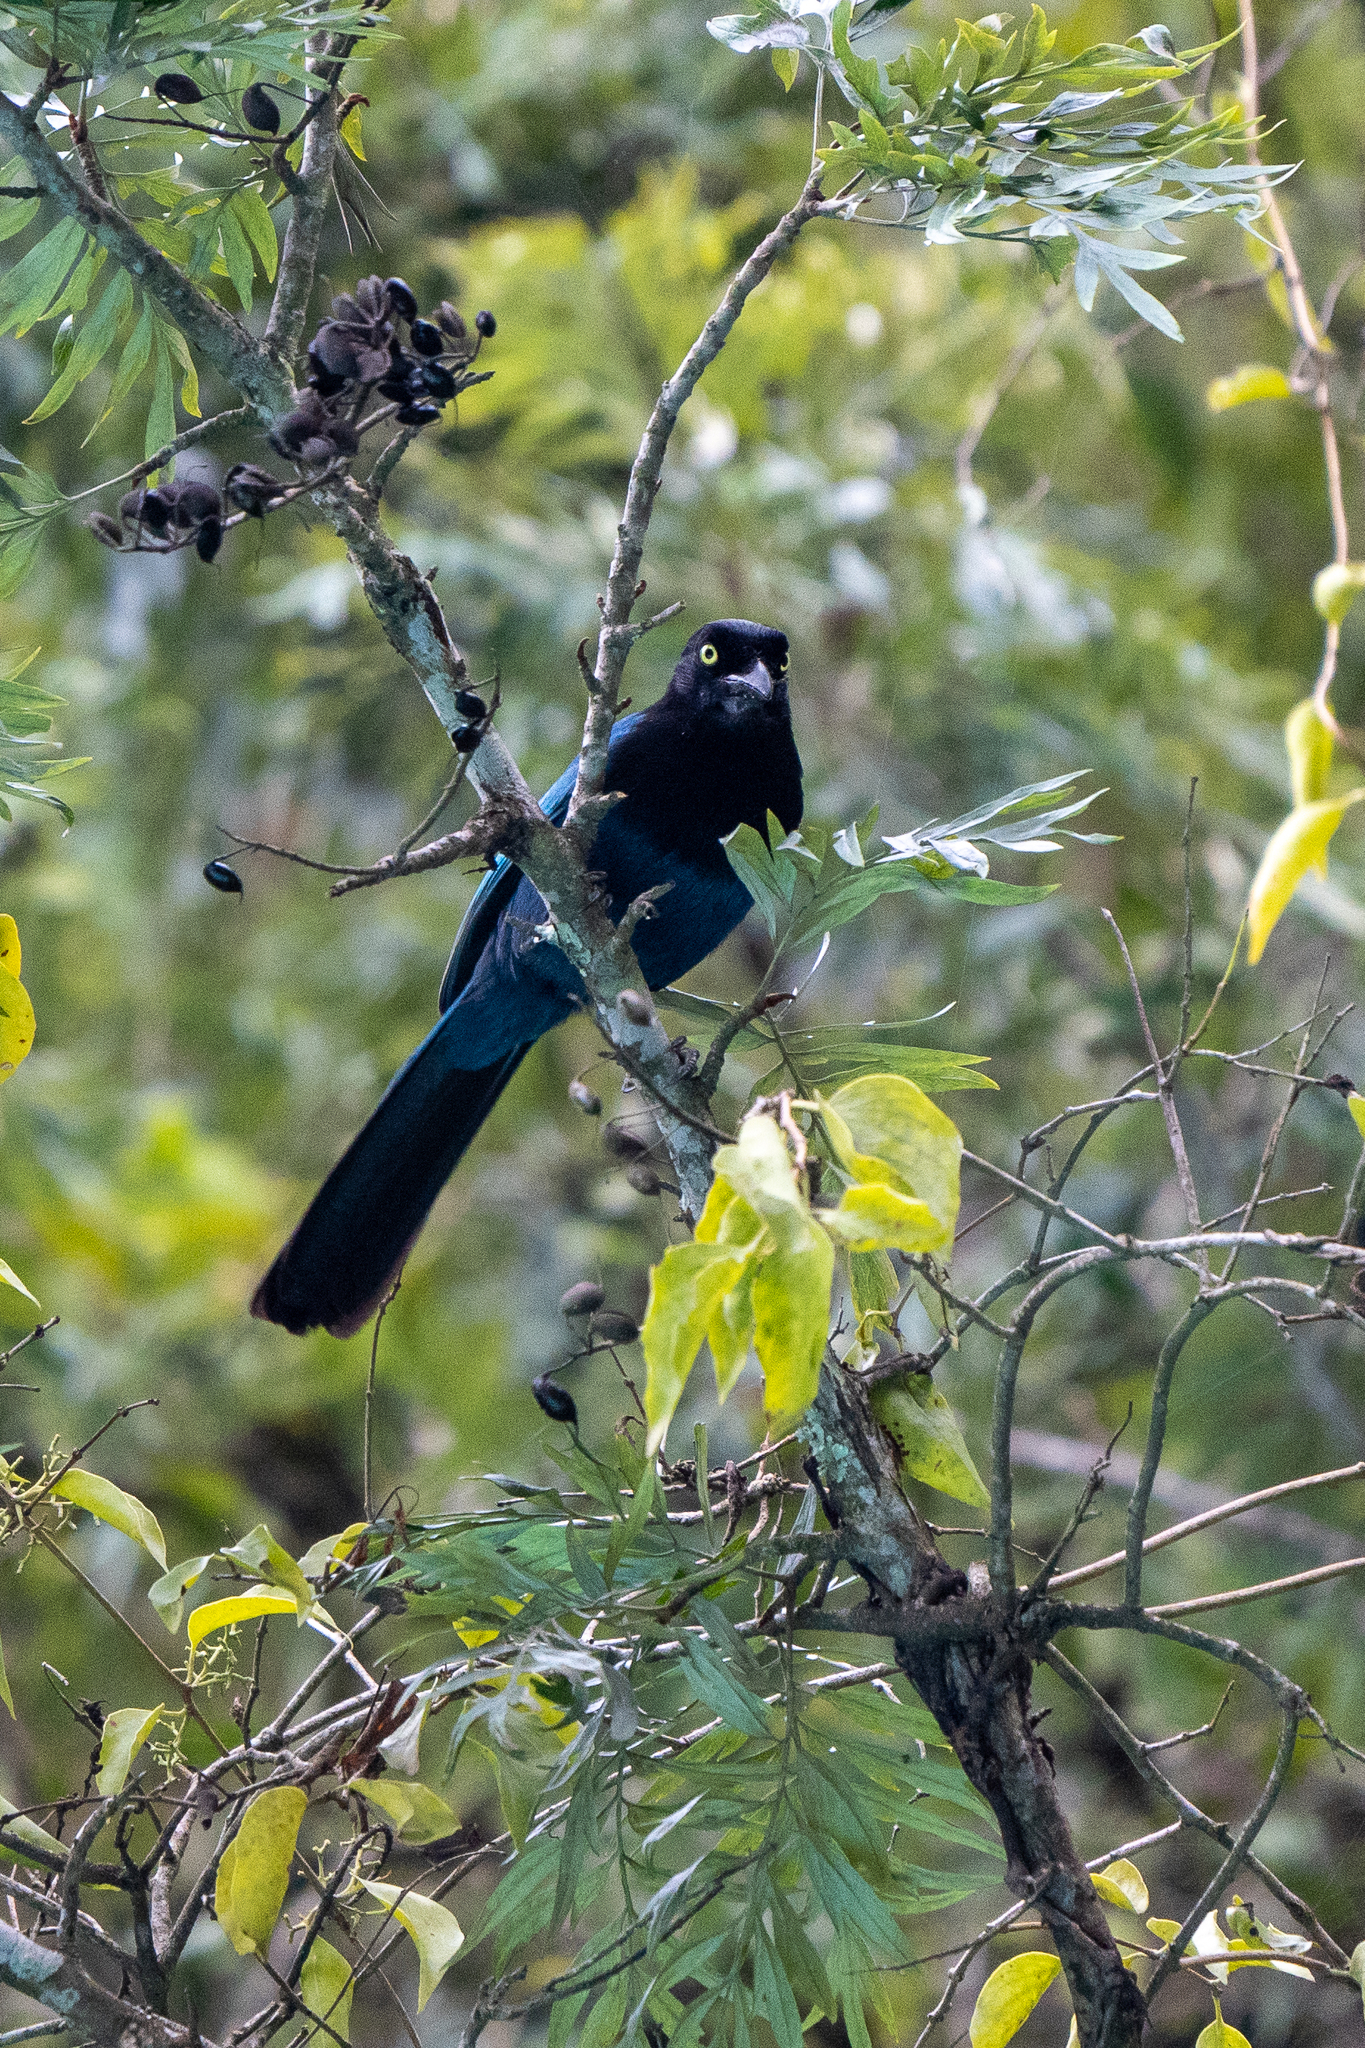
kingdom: Animalia
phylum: Chordata
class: Aves
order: Passeriformes
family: Corvidae
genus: Cyanocorax
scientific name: Cyanocorax melanocyaneus
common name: Bushy-crested jay
